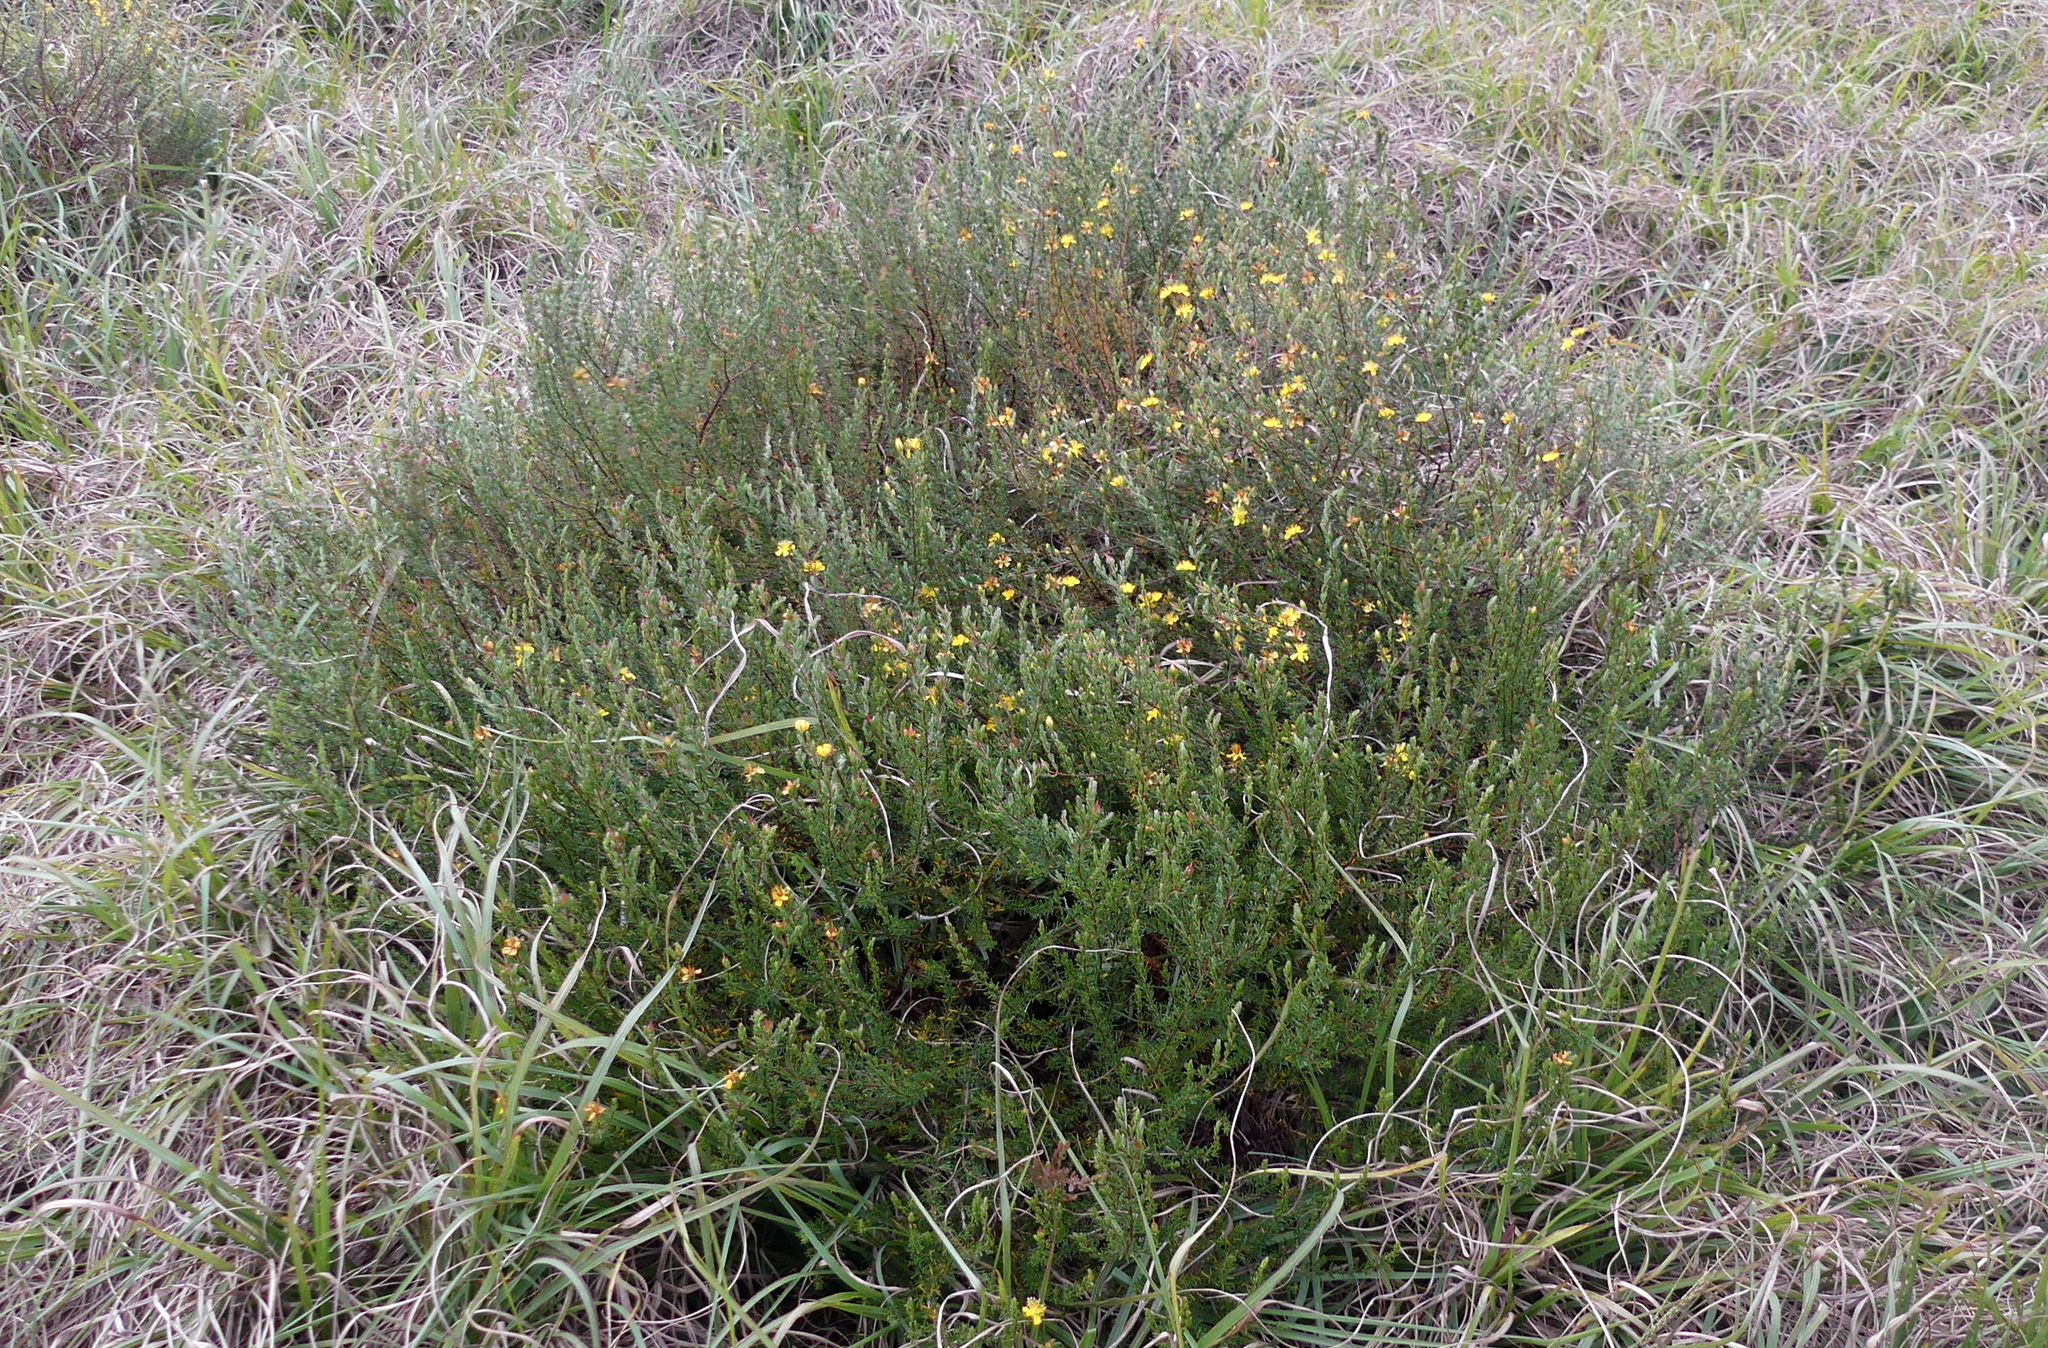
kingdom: Plantae
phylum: Tracheophyta
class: Magnoliopsida
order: Malpighiales
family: Hypericaceae
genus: Hypericum
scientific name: Hypericum tenuifolium
